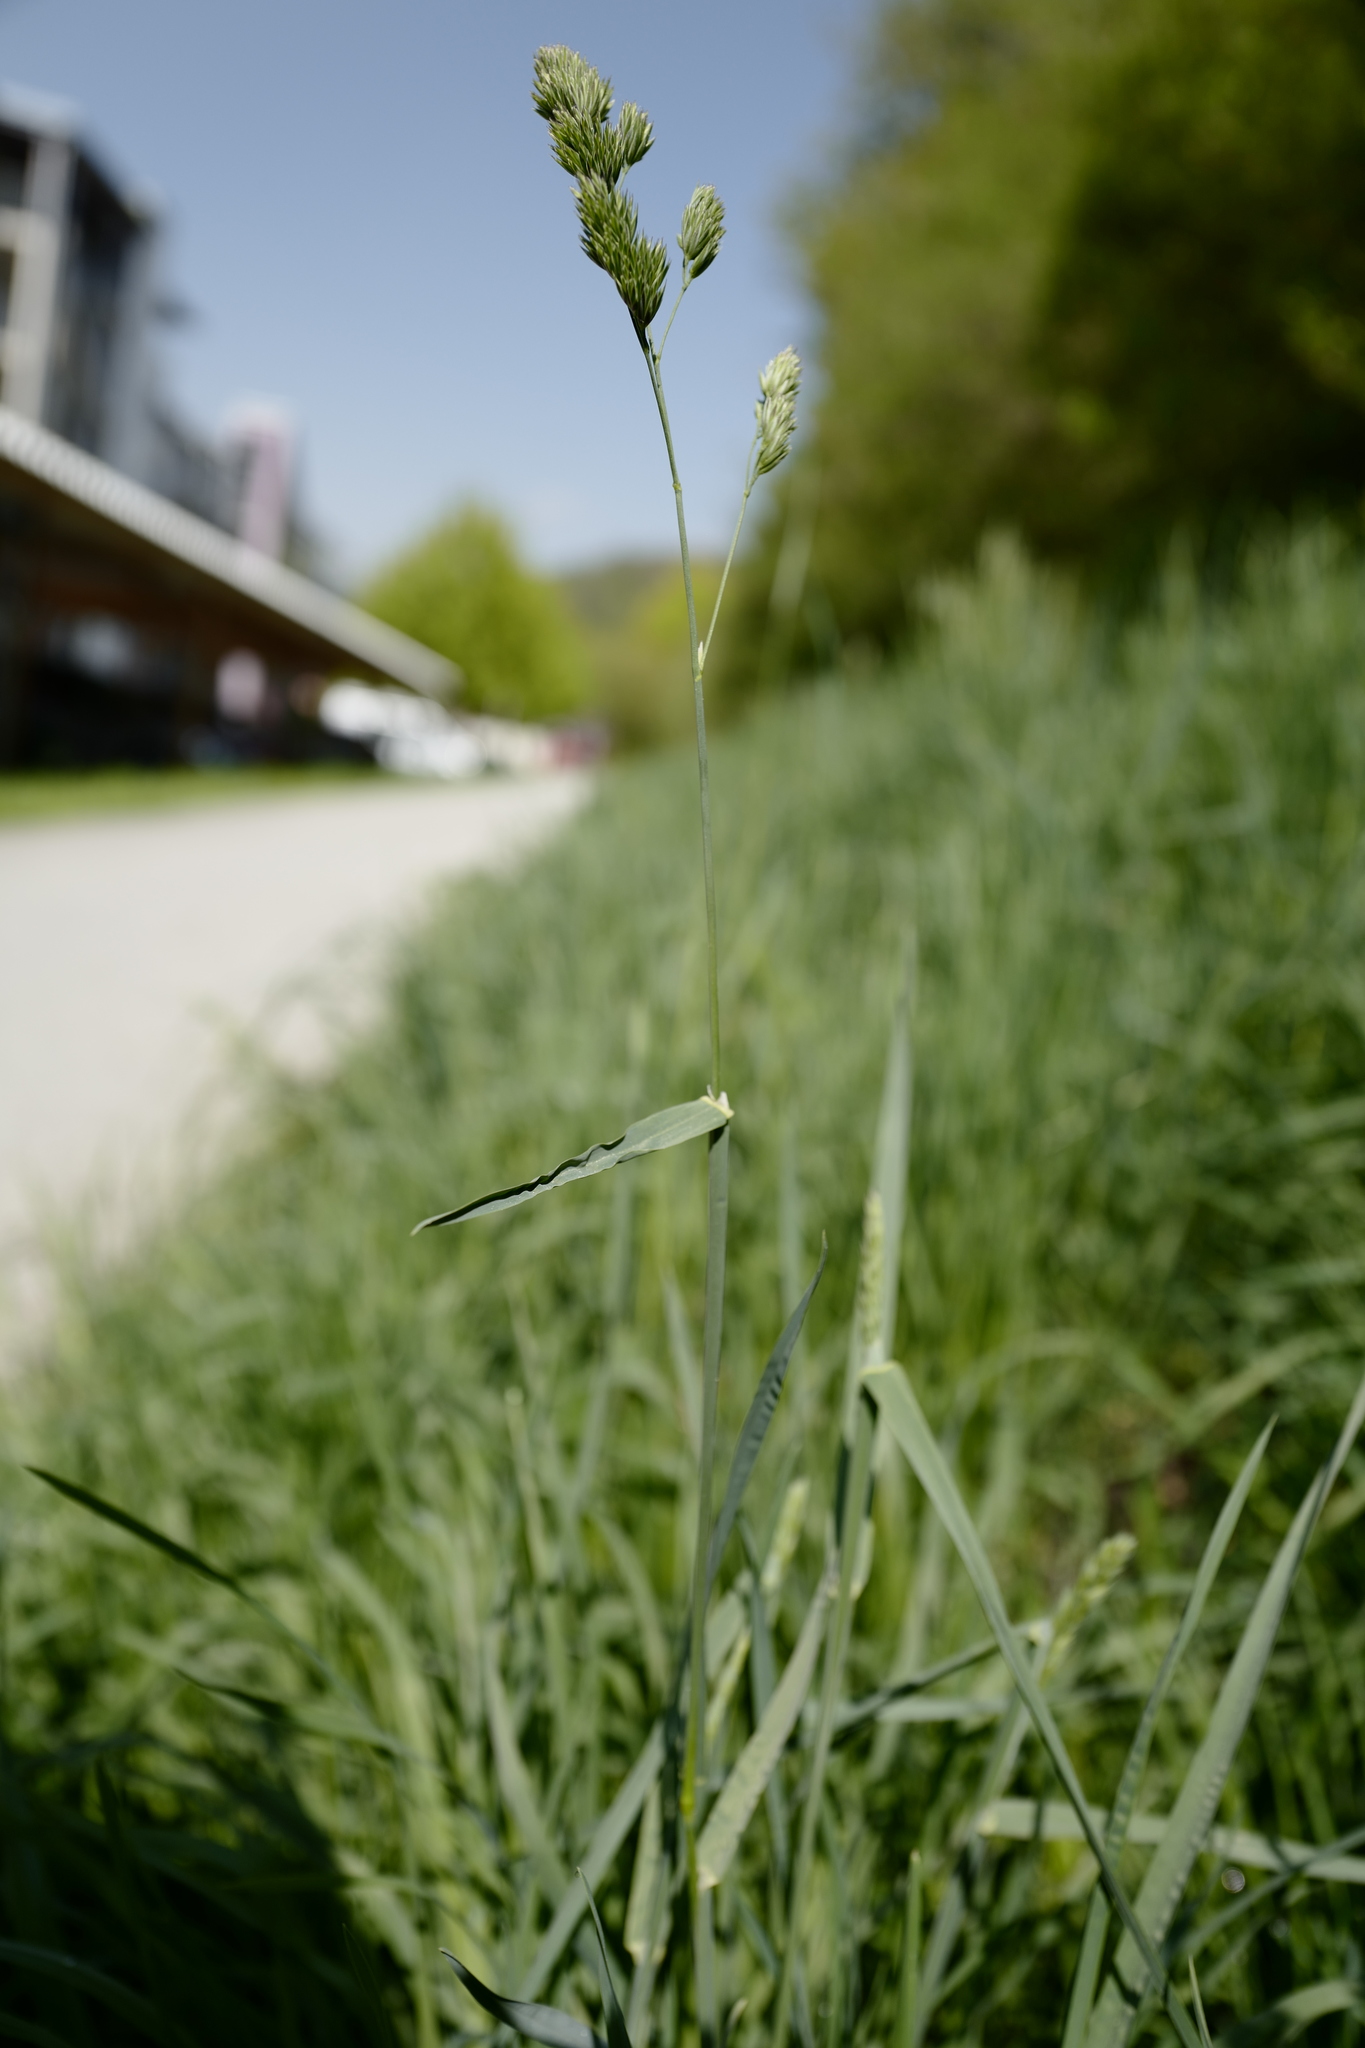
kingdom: Plantae
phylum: Tracheophyta
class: Liliopsida
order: Poales
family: Poaceae
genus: Dactylis
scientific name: Dactylis glomerata
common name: Orchardgrass
